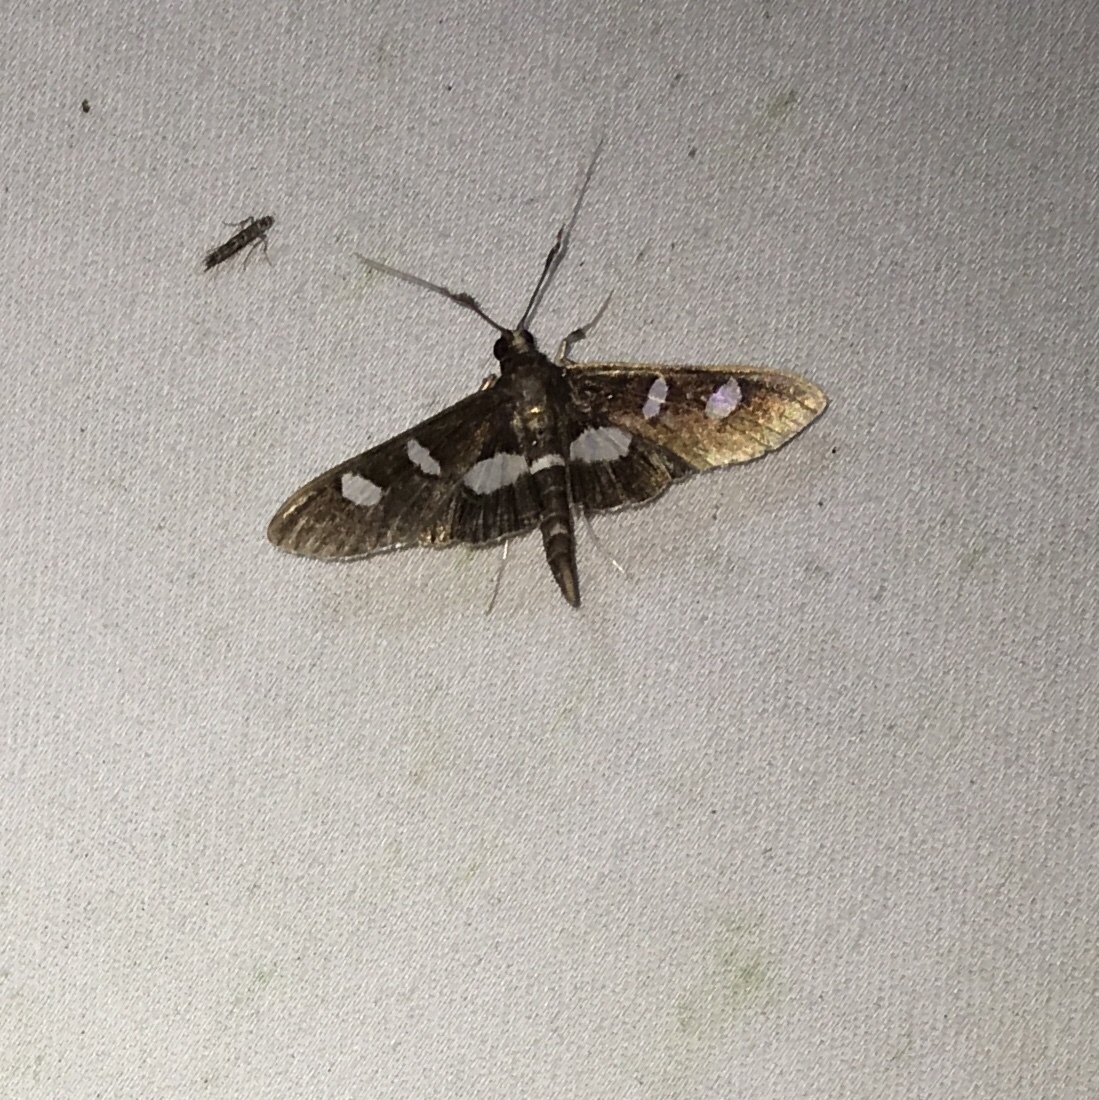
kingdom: Animalia
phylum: Arthropoda
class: Insecta
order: Lepidoptera
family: Crambidae
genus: Desmia
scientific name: Desmia
